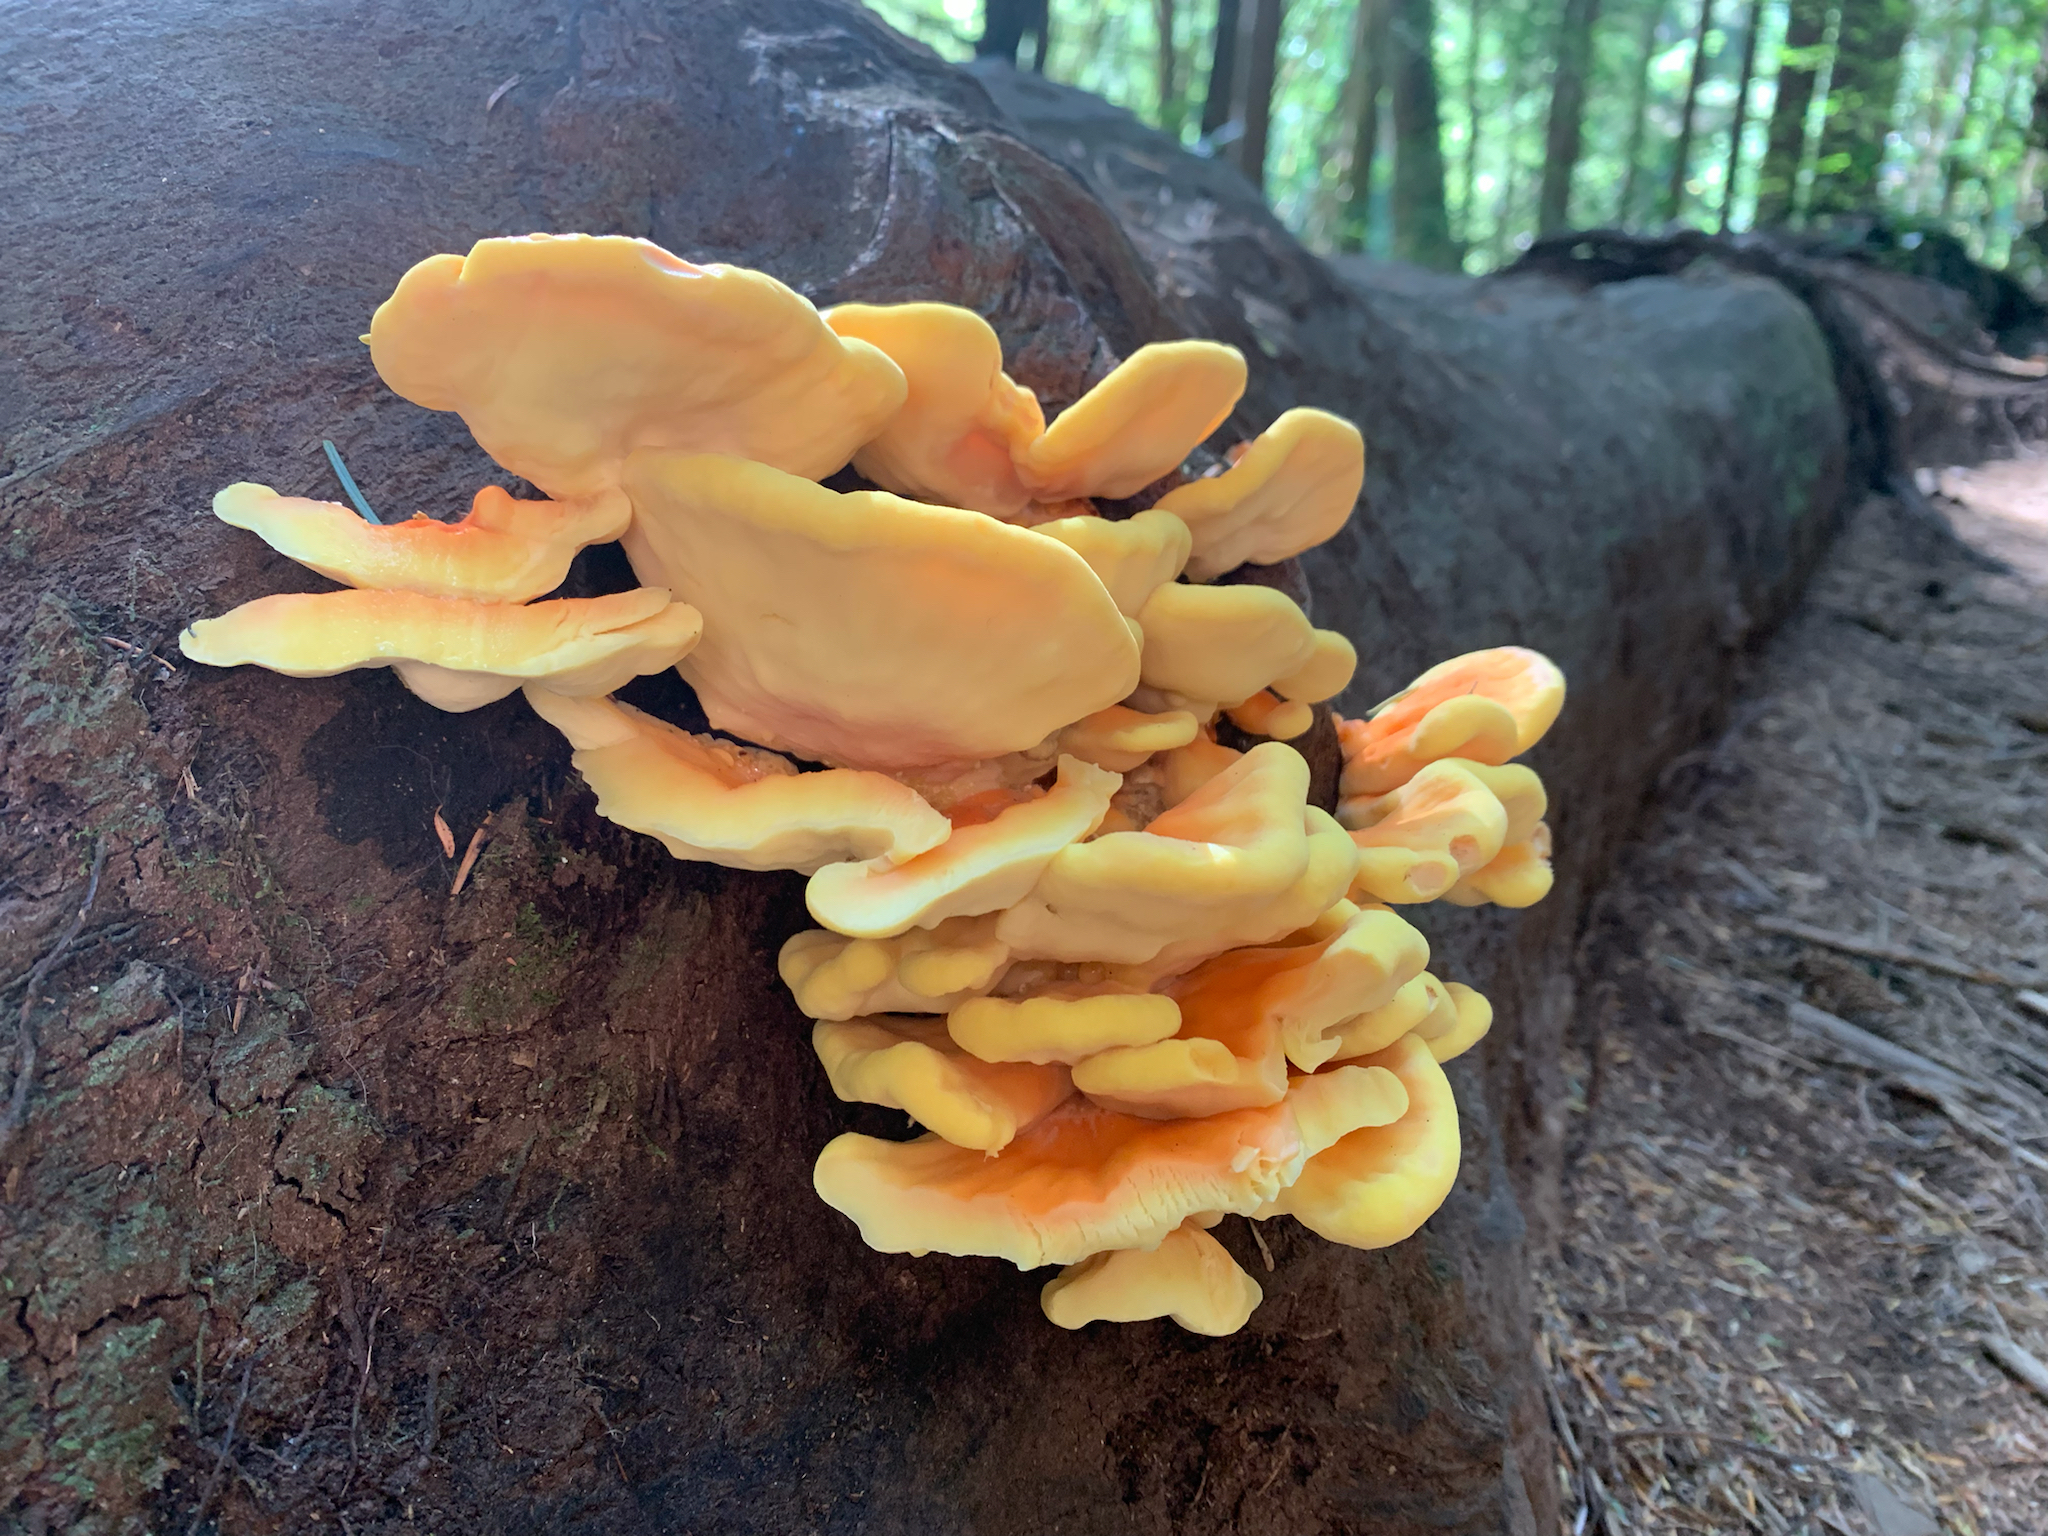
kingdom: Fungi
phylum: Basidiomycota
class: Agaricomycetes
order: Polyporales
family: Laetiporaceae
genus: Laetiporus
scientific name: Laetiporus conifericola
